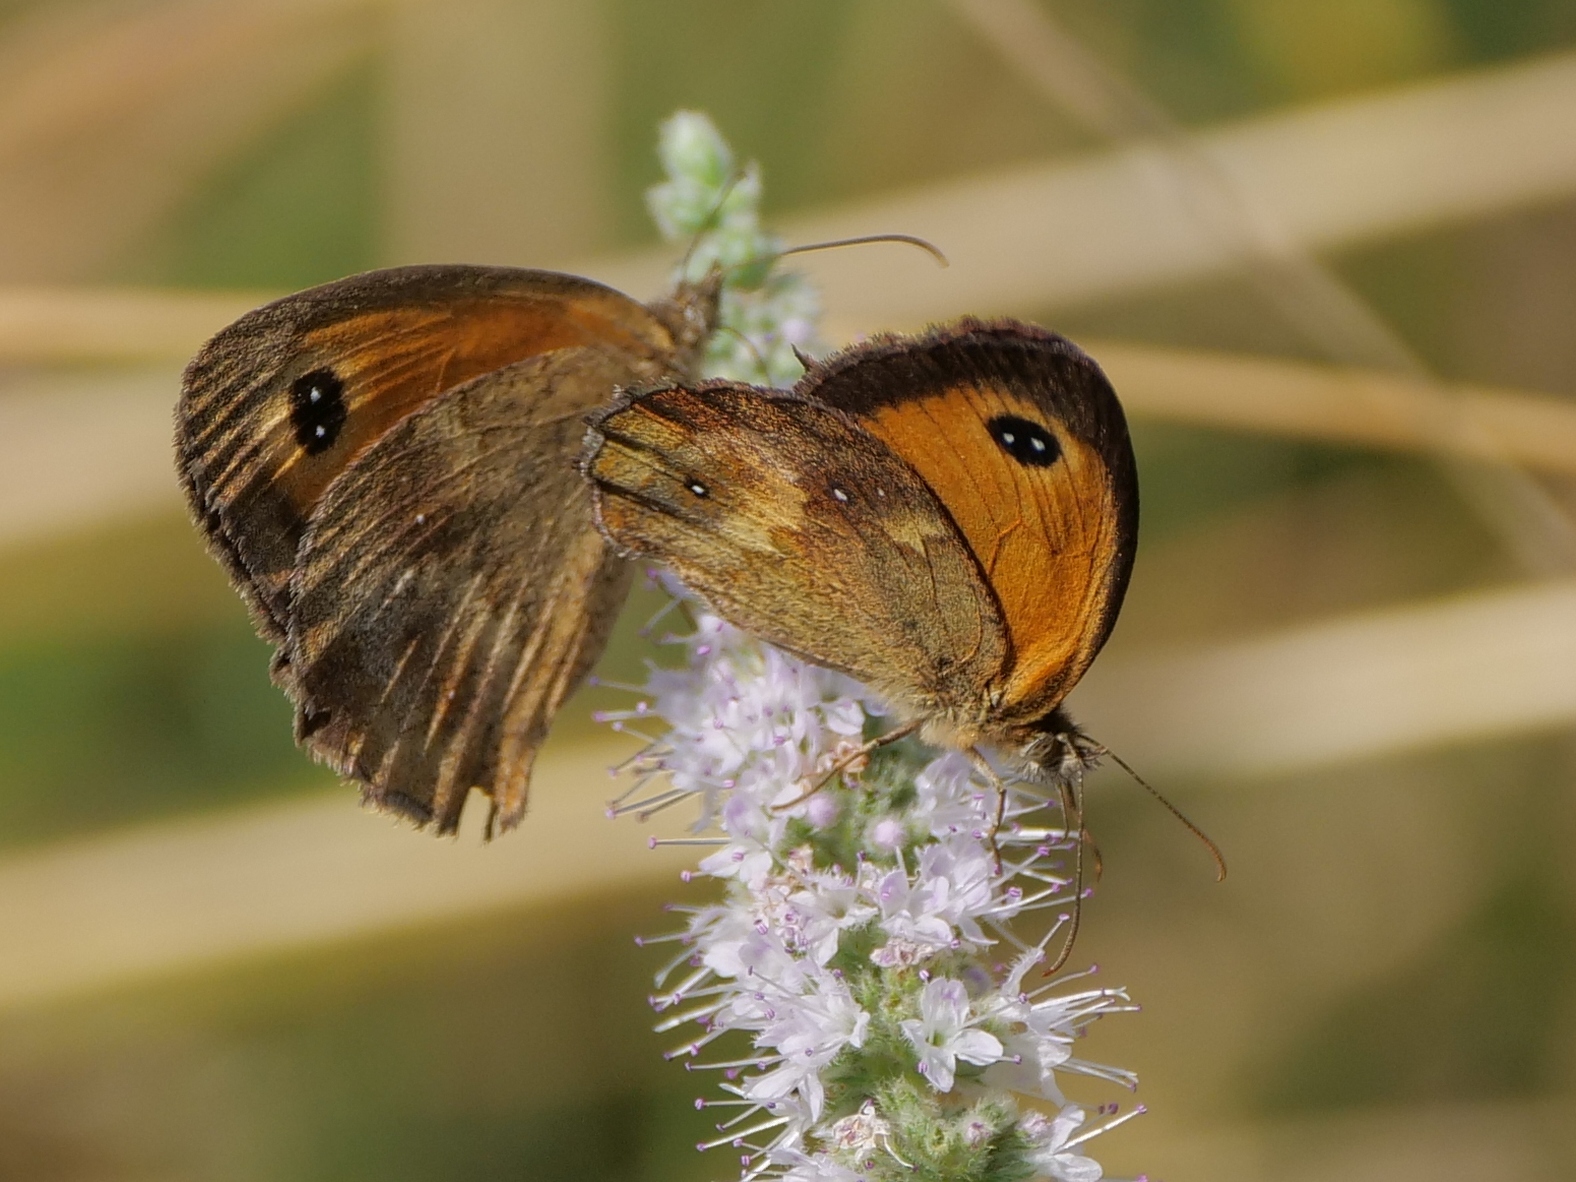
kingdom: Animalia
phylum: Arthropoda
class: Insecta
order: Lepidoptera
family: Nymphalidae
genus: Pyronia
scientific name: Pyronia tithonus
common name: Gatekeeper
